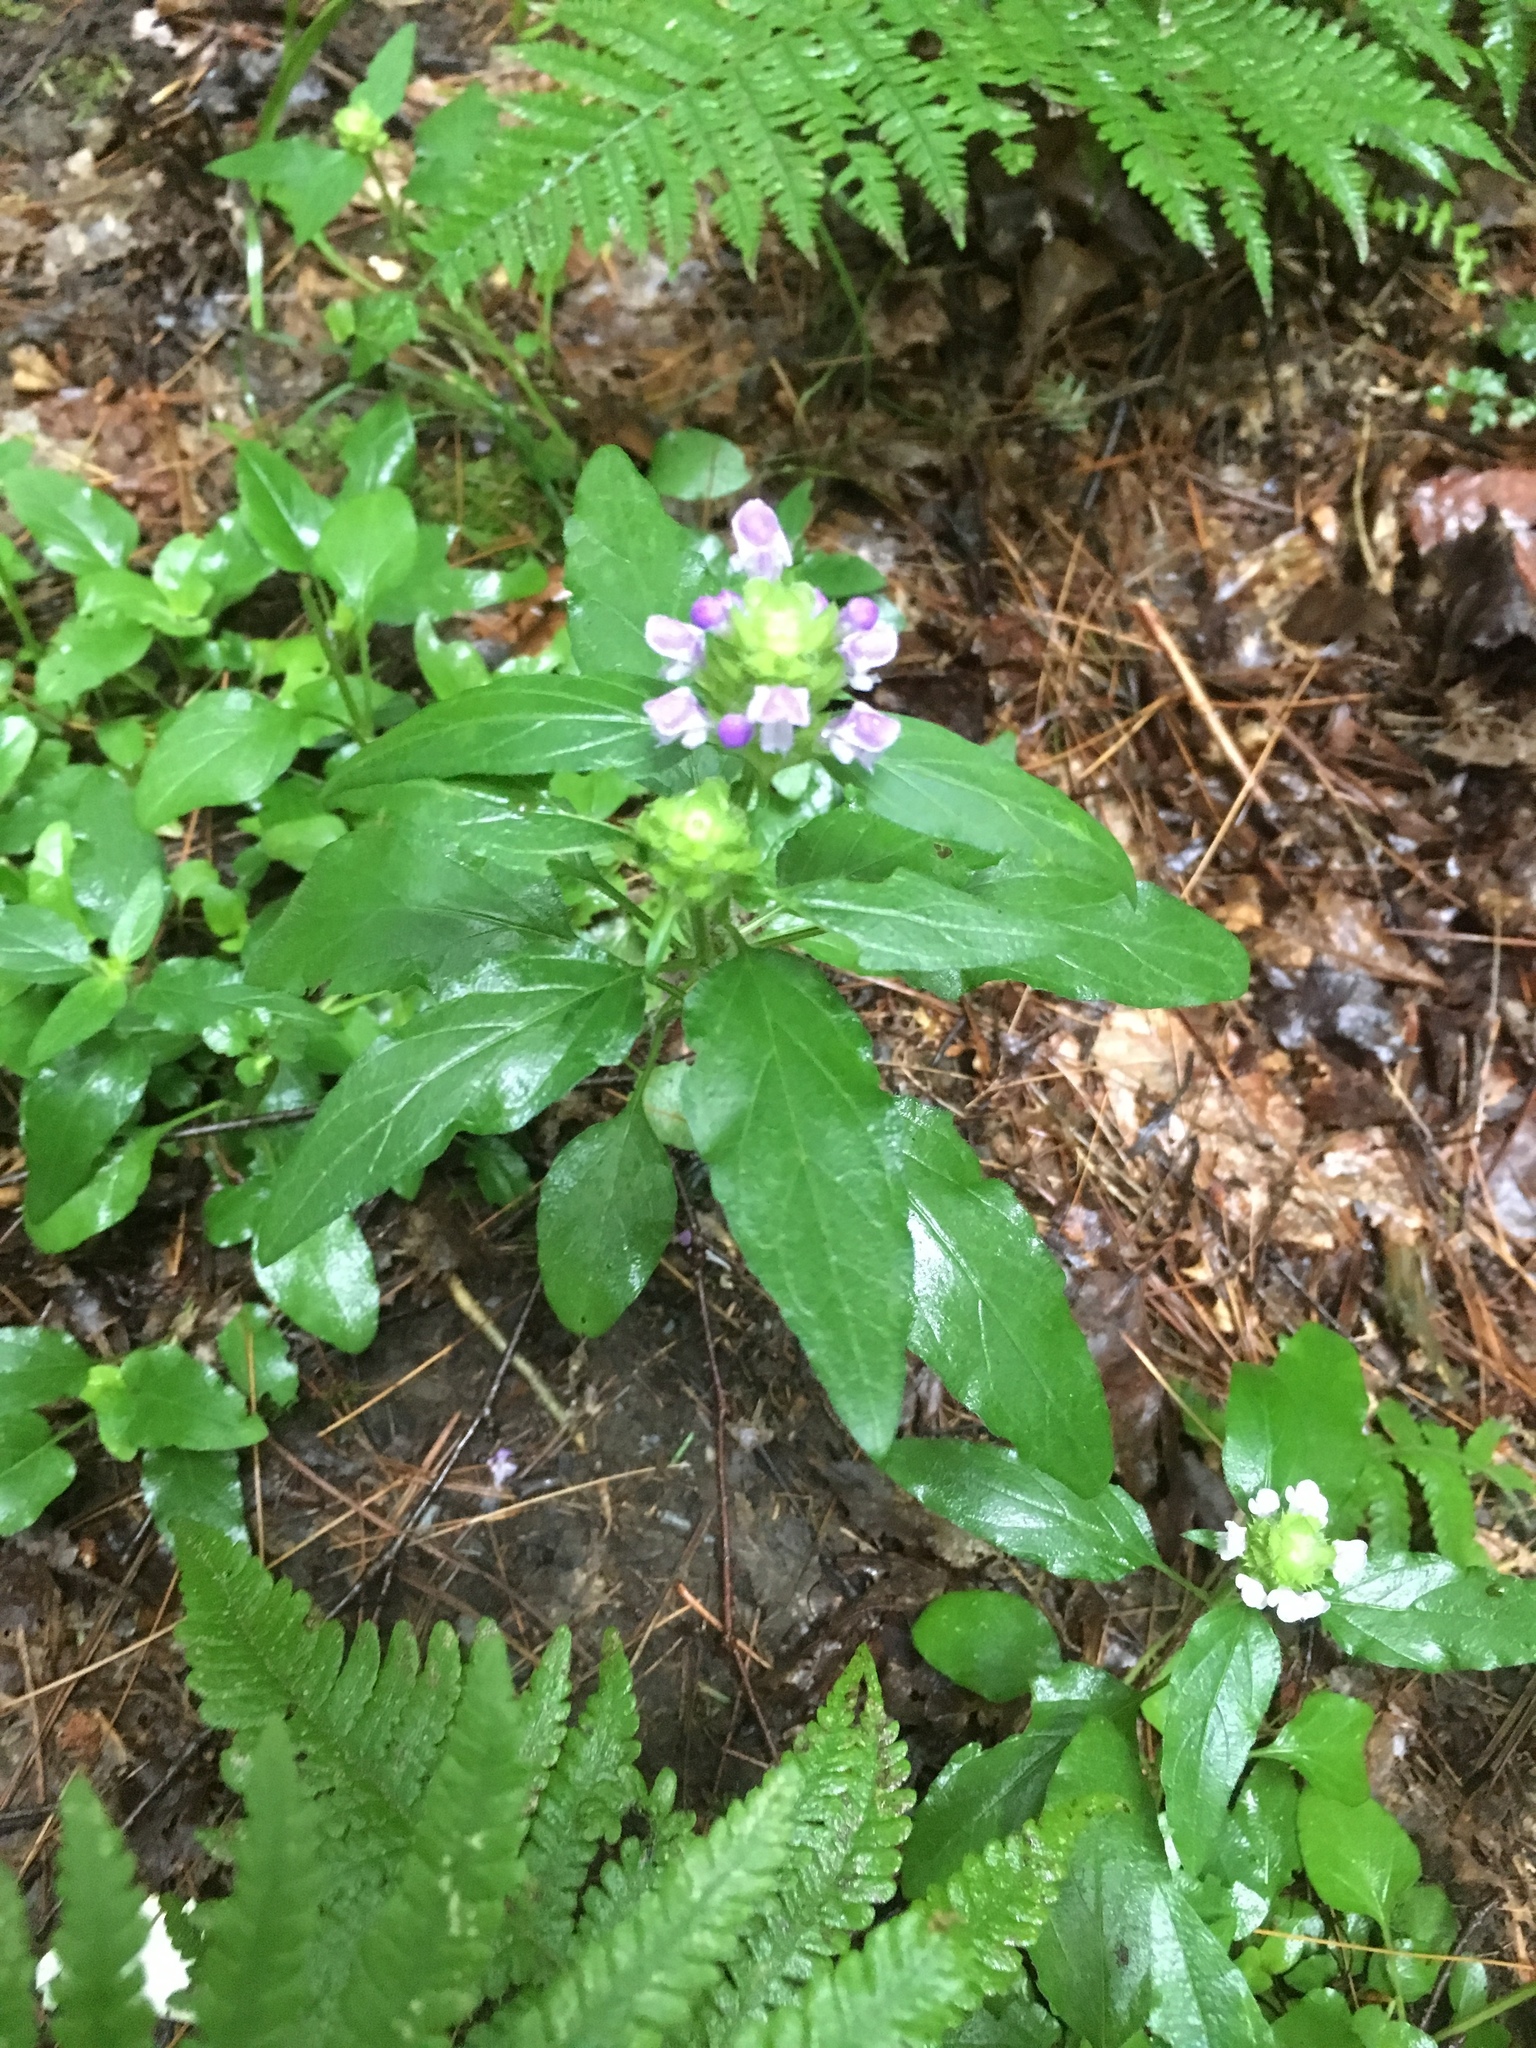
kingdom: Plantae
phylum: Tracheophyta
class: Magnoliopsida
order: Lamiales
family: Lamiaceae
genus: Prunella
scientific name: Prunella vulgaris
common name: Heal-all
